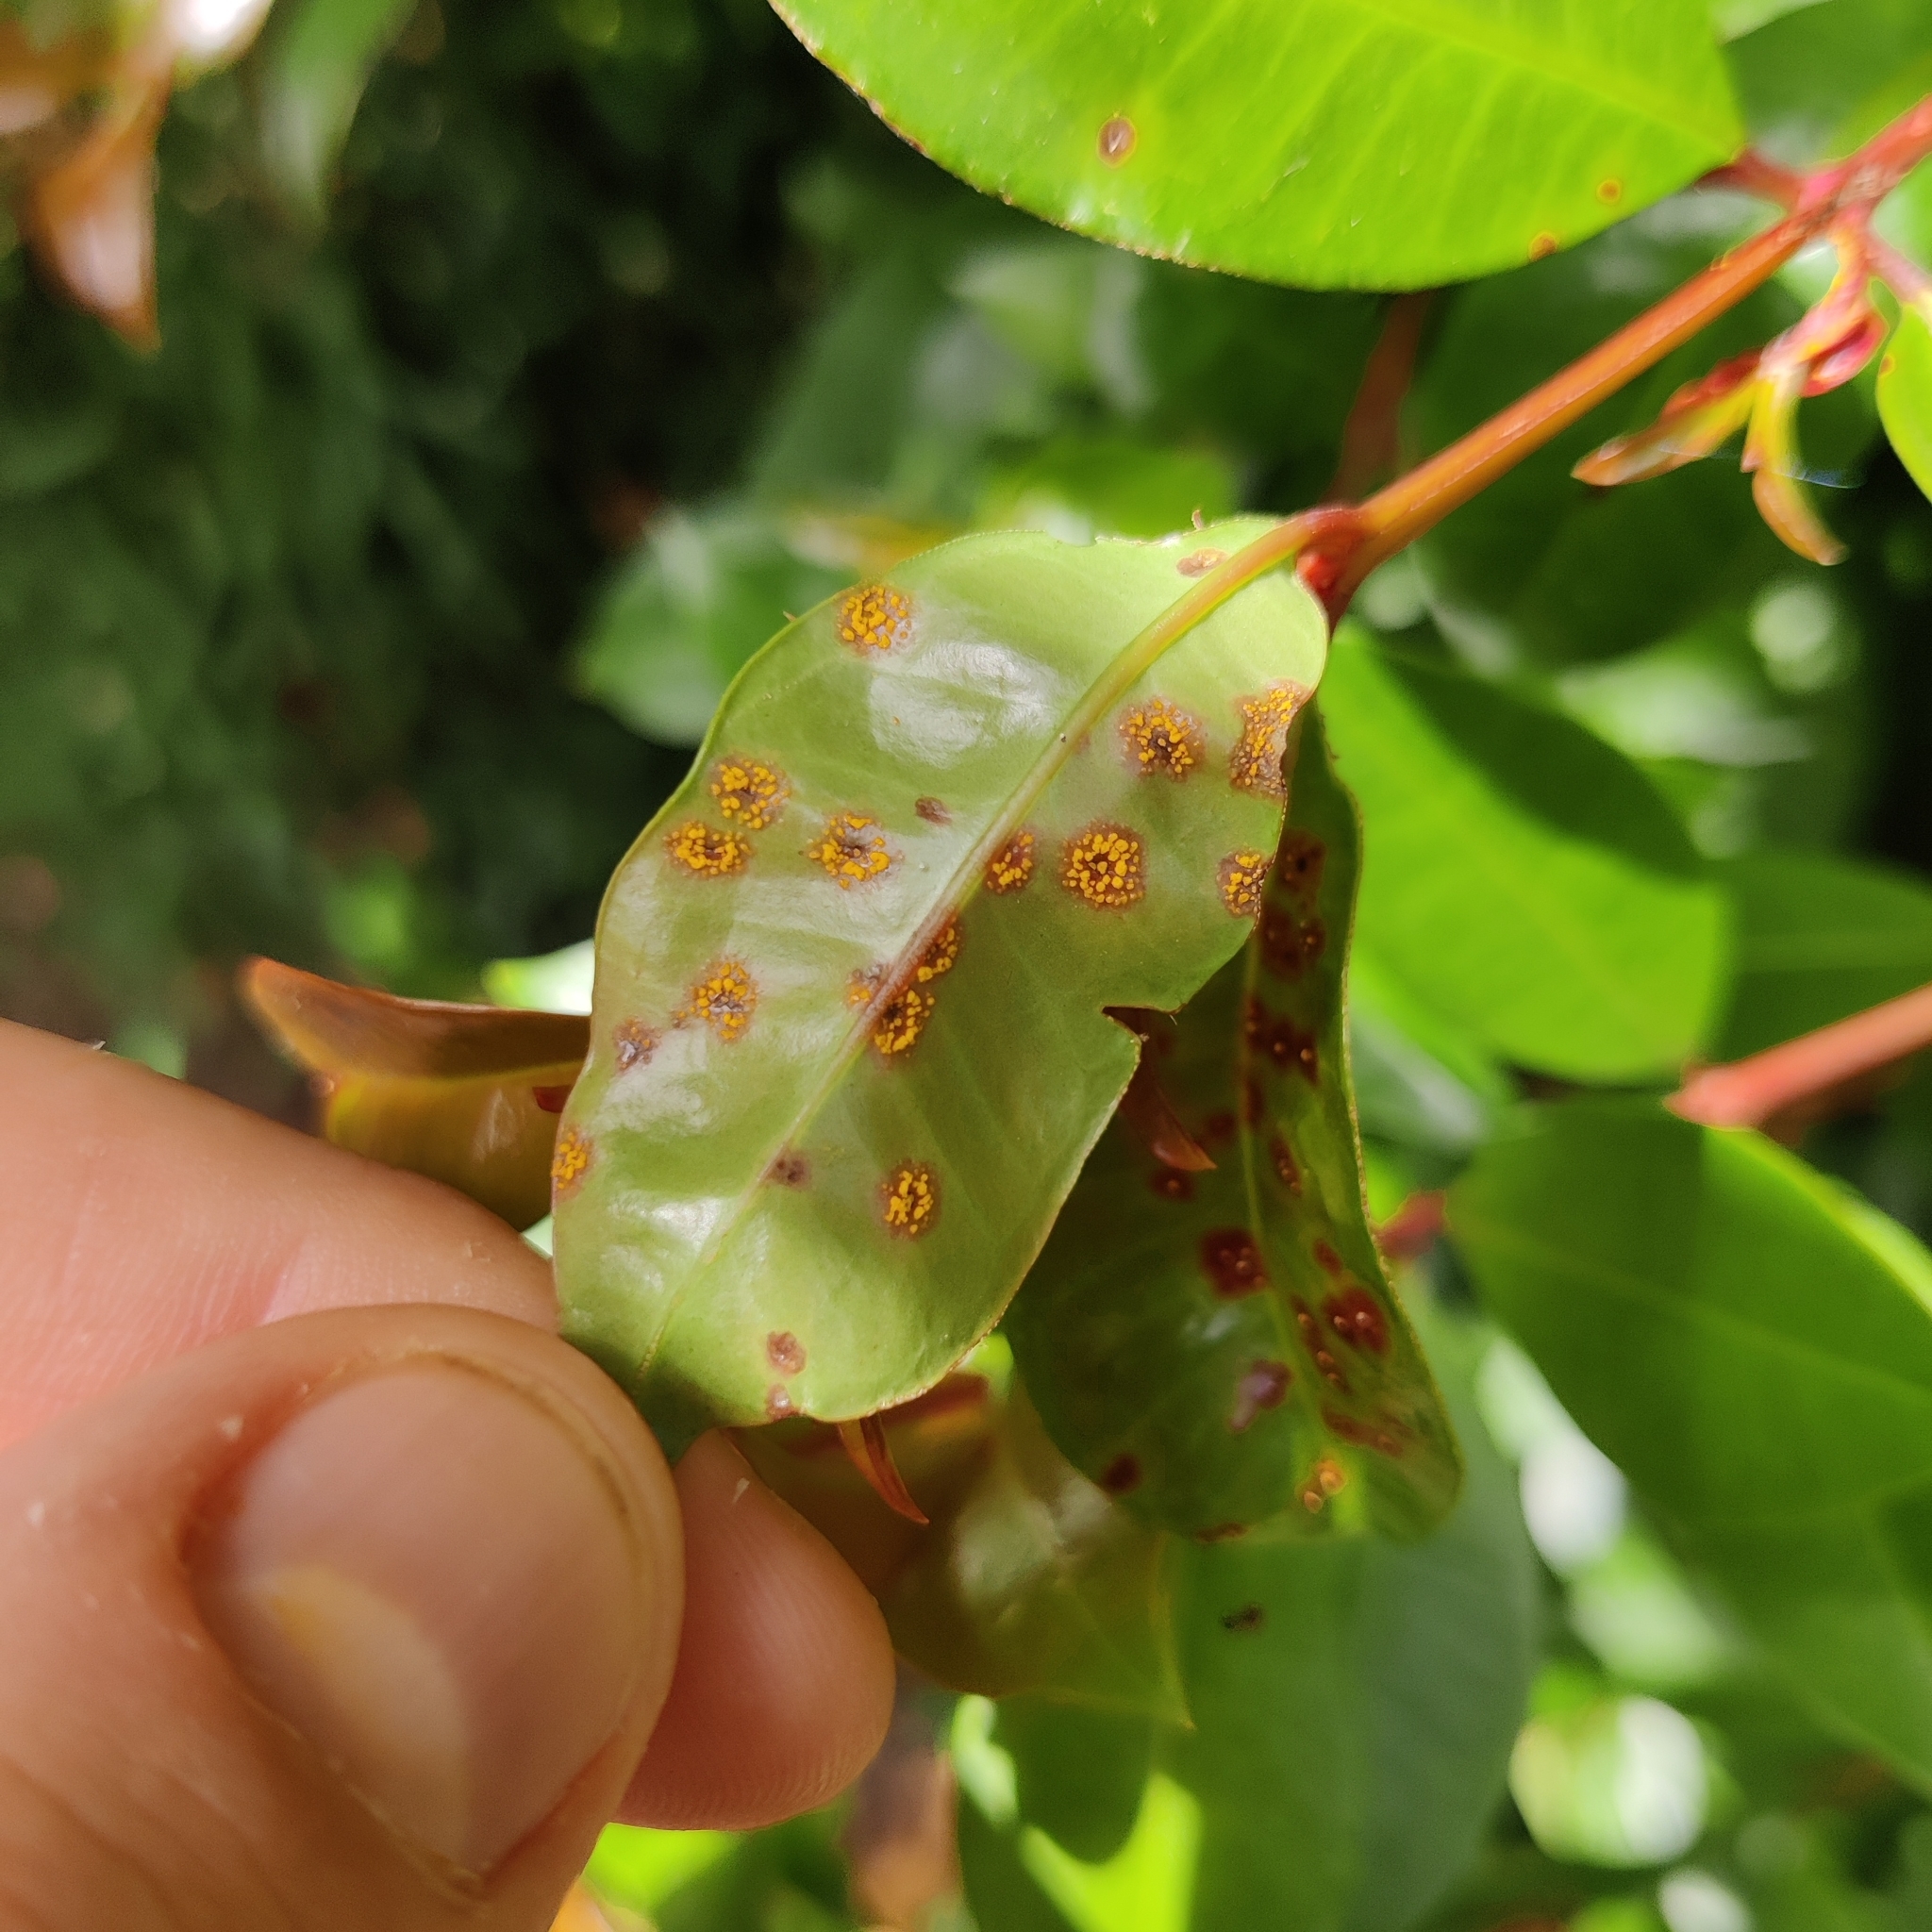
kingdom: Fungi
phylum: Basidiomycota
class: Pucciniomycetes
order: Pucciniales
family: Sphaerophragmiaceae
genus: Austropuccinia
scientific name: Austropuccinia psidii
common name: Myrtle rust
